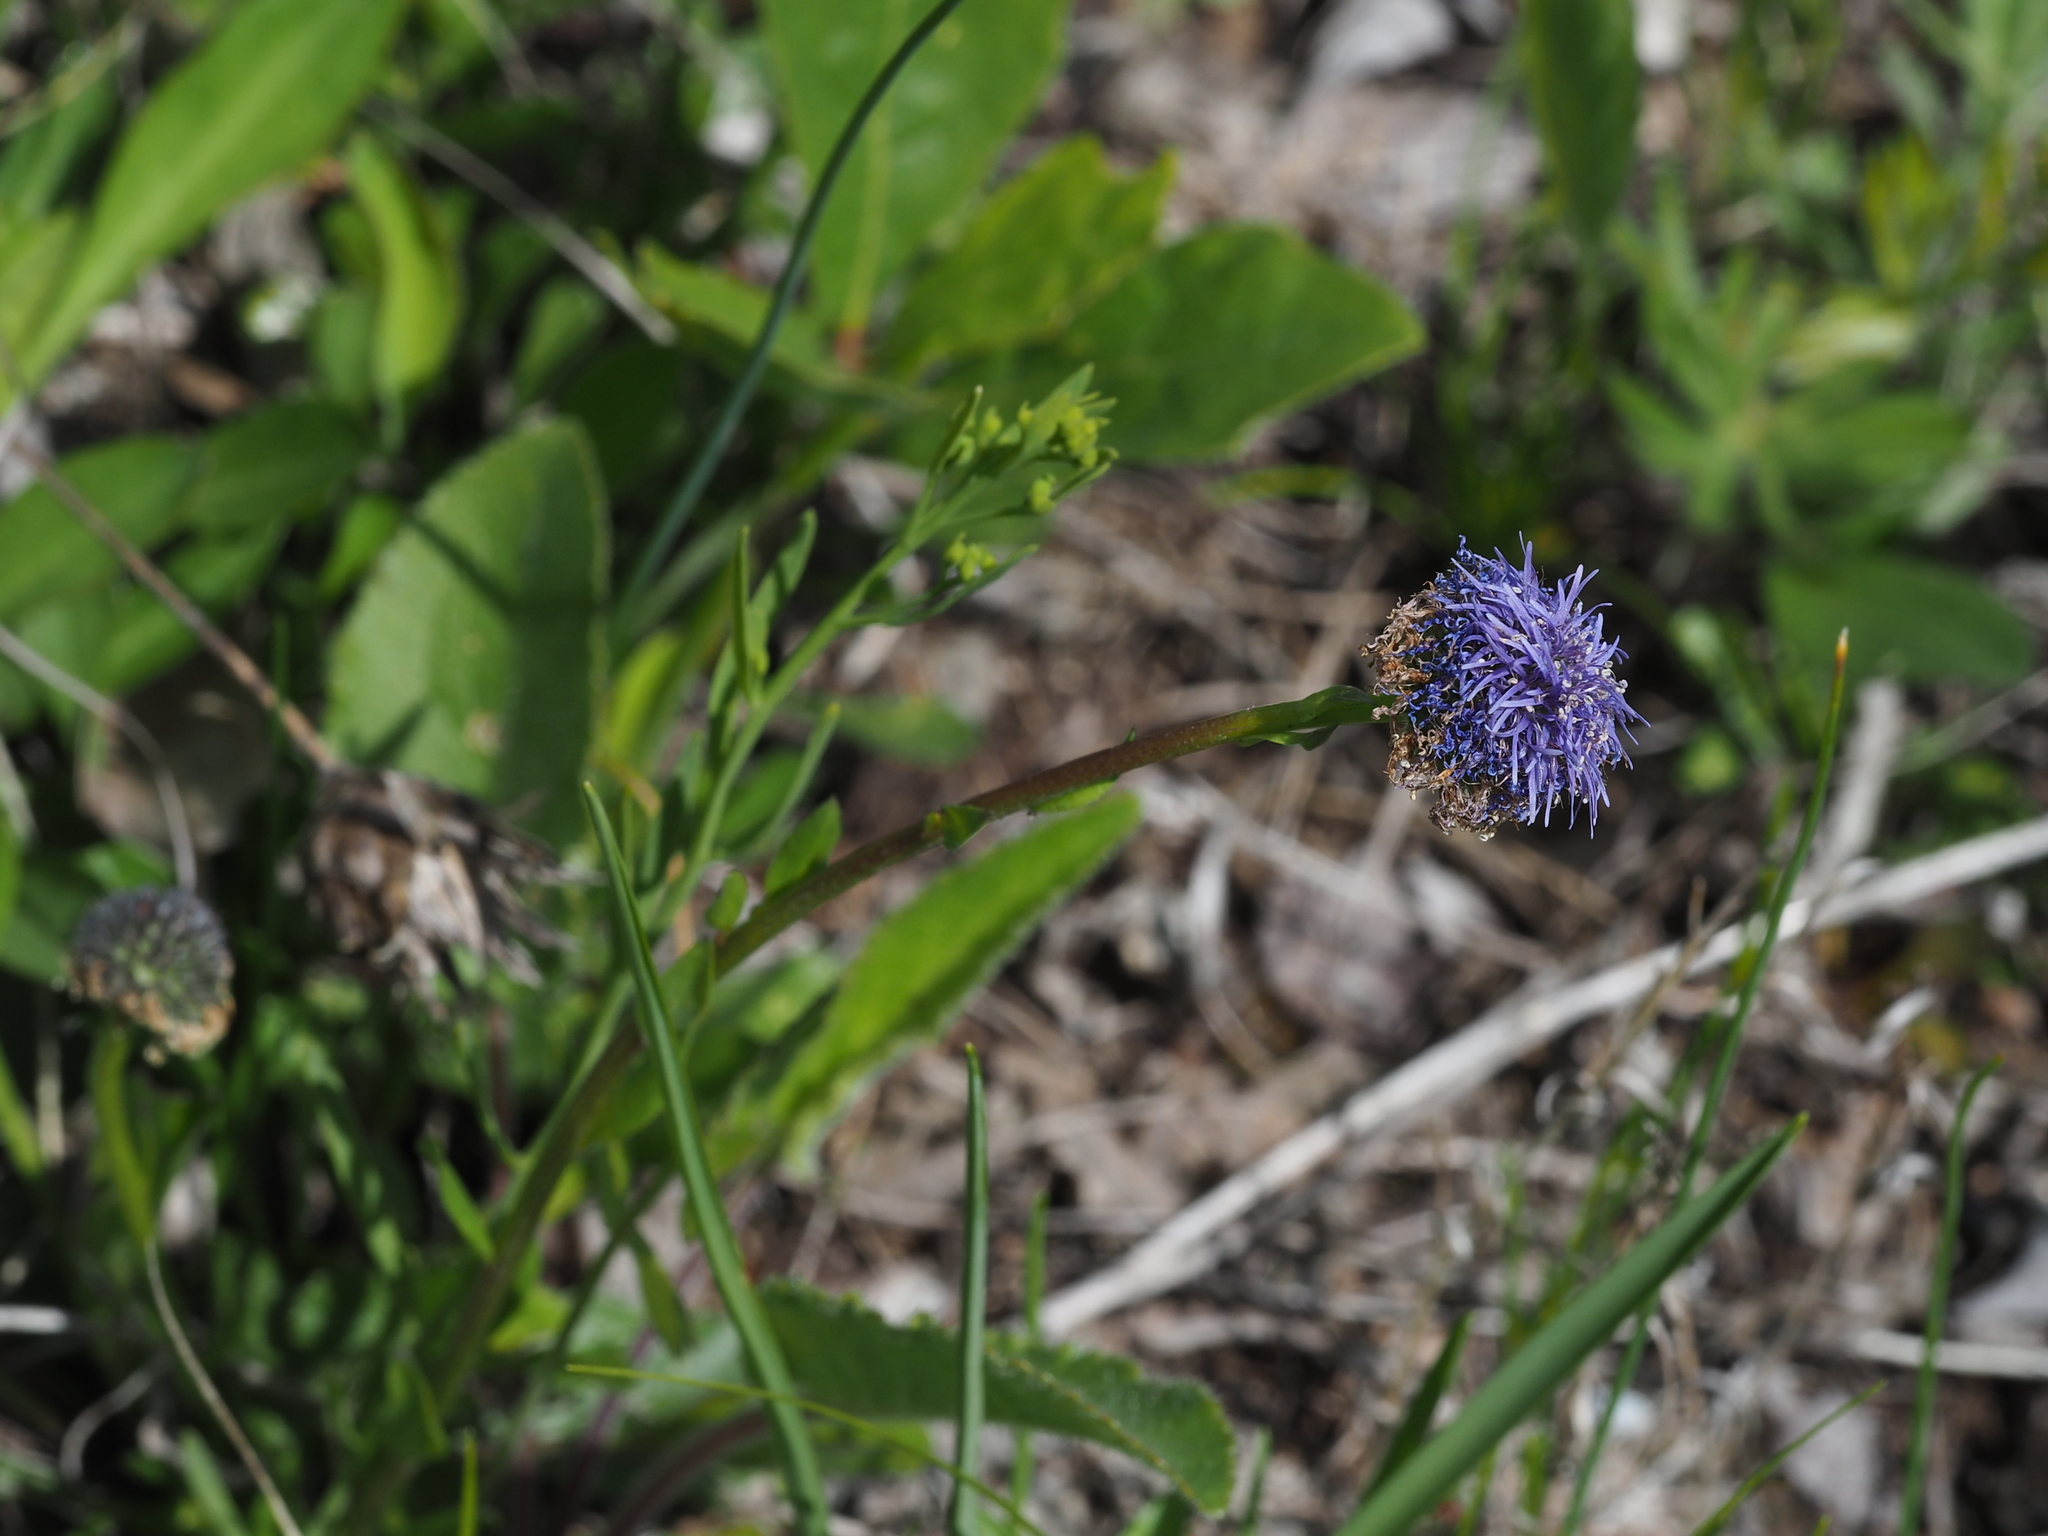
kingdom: Plantae
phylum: Tracheophyta
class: Magnoliopsida
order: Lamiales
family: Plantaginaceae
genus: Globularia
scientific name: Globularia bisnagarica
